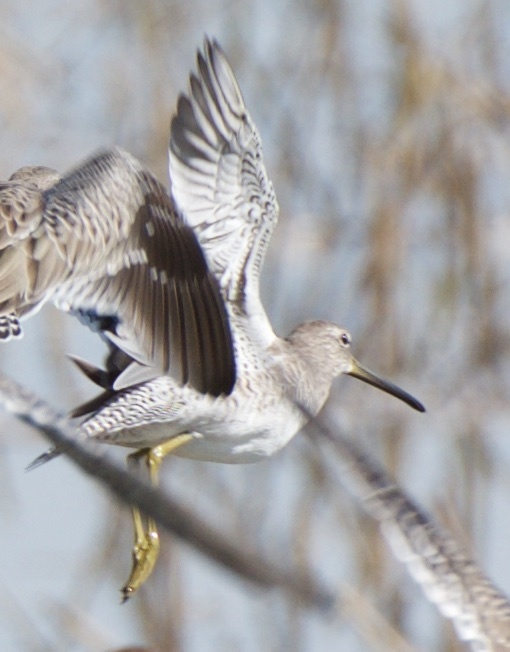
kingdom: Animalia
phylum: Chordata
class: Aves
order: Charadriiformes
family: Scolopacidae
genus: Limnodromus
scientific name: Limnodromus scolopaceus
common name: Long-billed dowitcher
